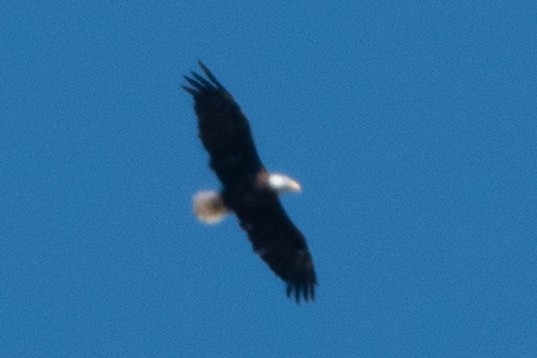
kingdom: Animalia
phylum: Chordata
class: Aves
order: Accipitriformes
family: Accipitridae
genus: Haliaeetus
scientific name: Haliaeetus leucocephalus
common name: Bald eagle
